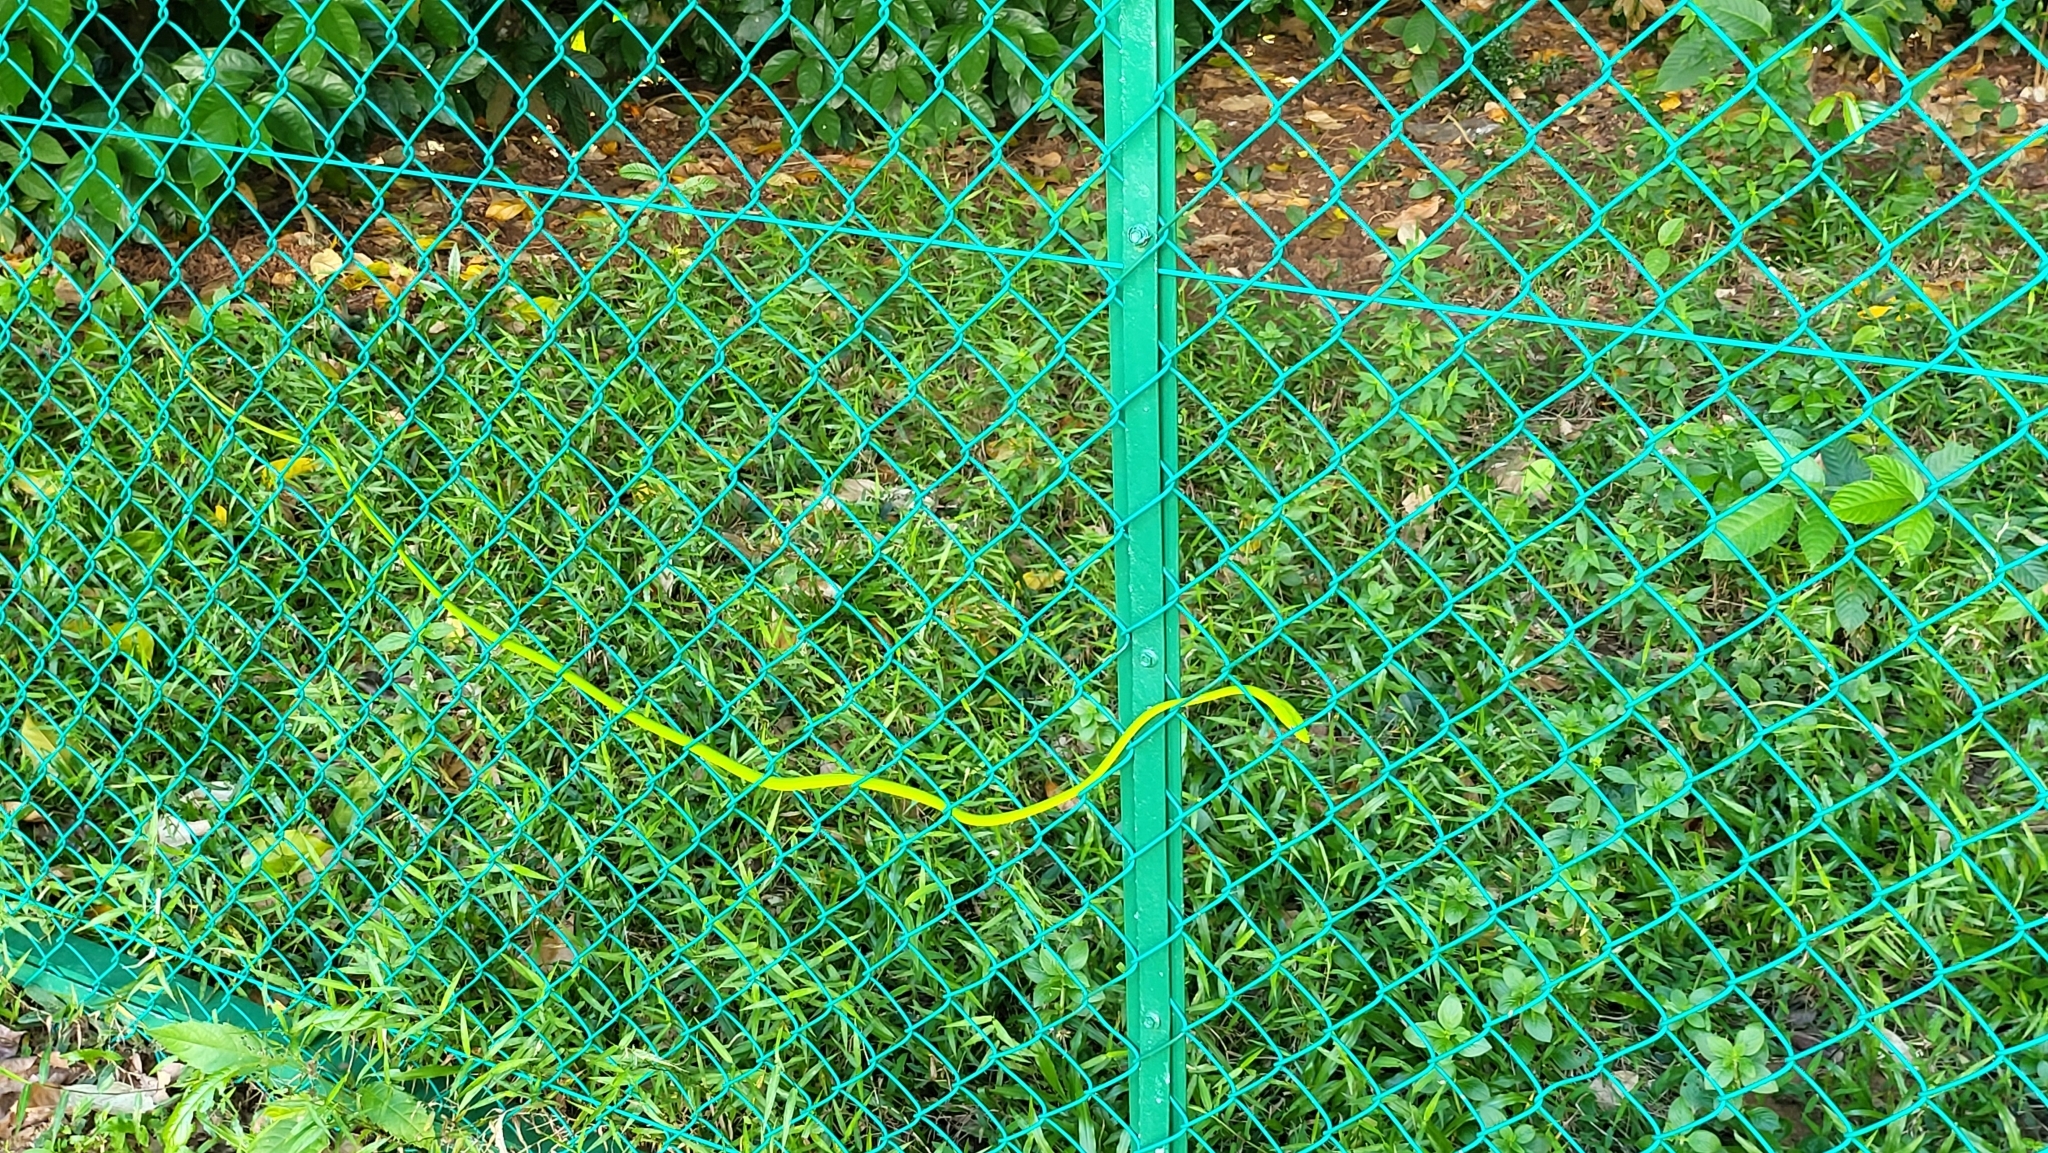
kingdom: Animalia
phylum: Chordata
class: Squamata
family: Colubridae
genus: Ahaetulla
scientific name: Ahaetulla prasina
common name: Oriental whip snake
